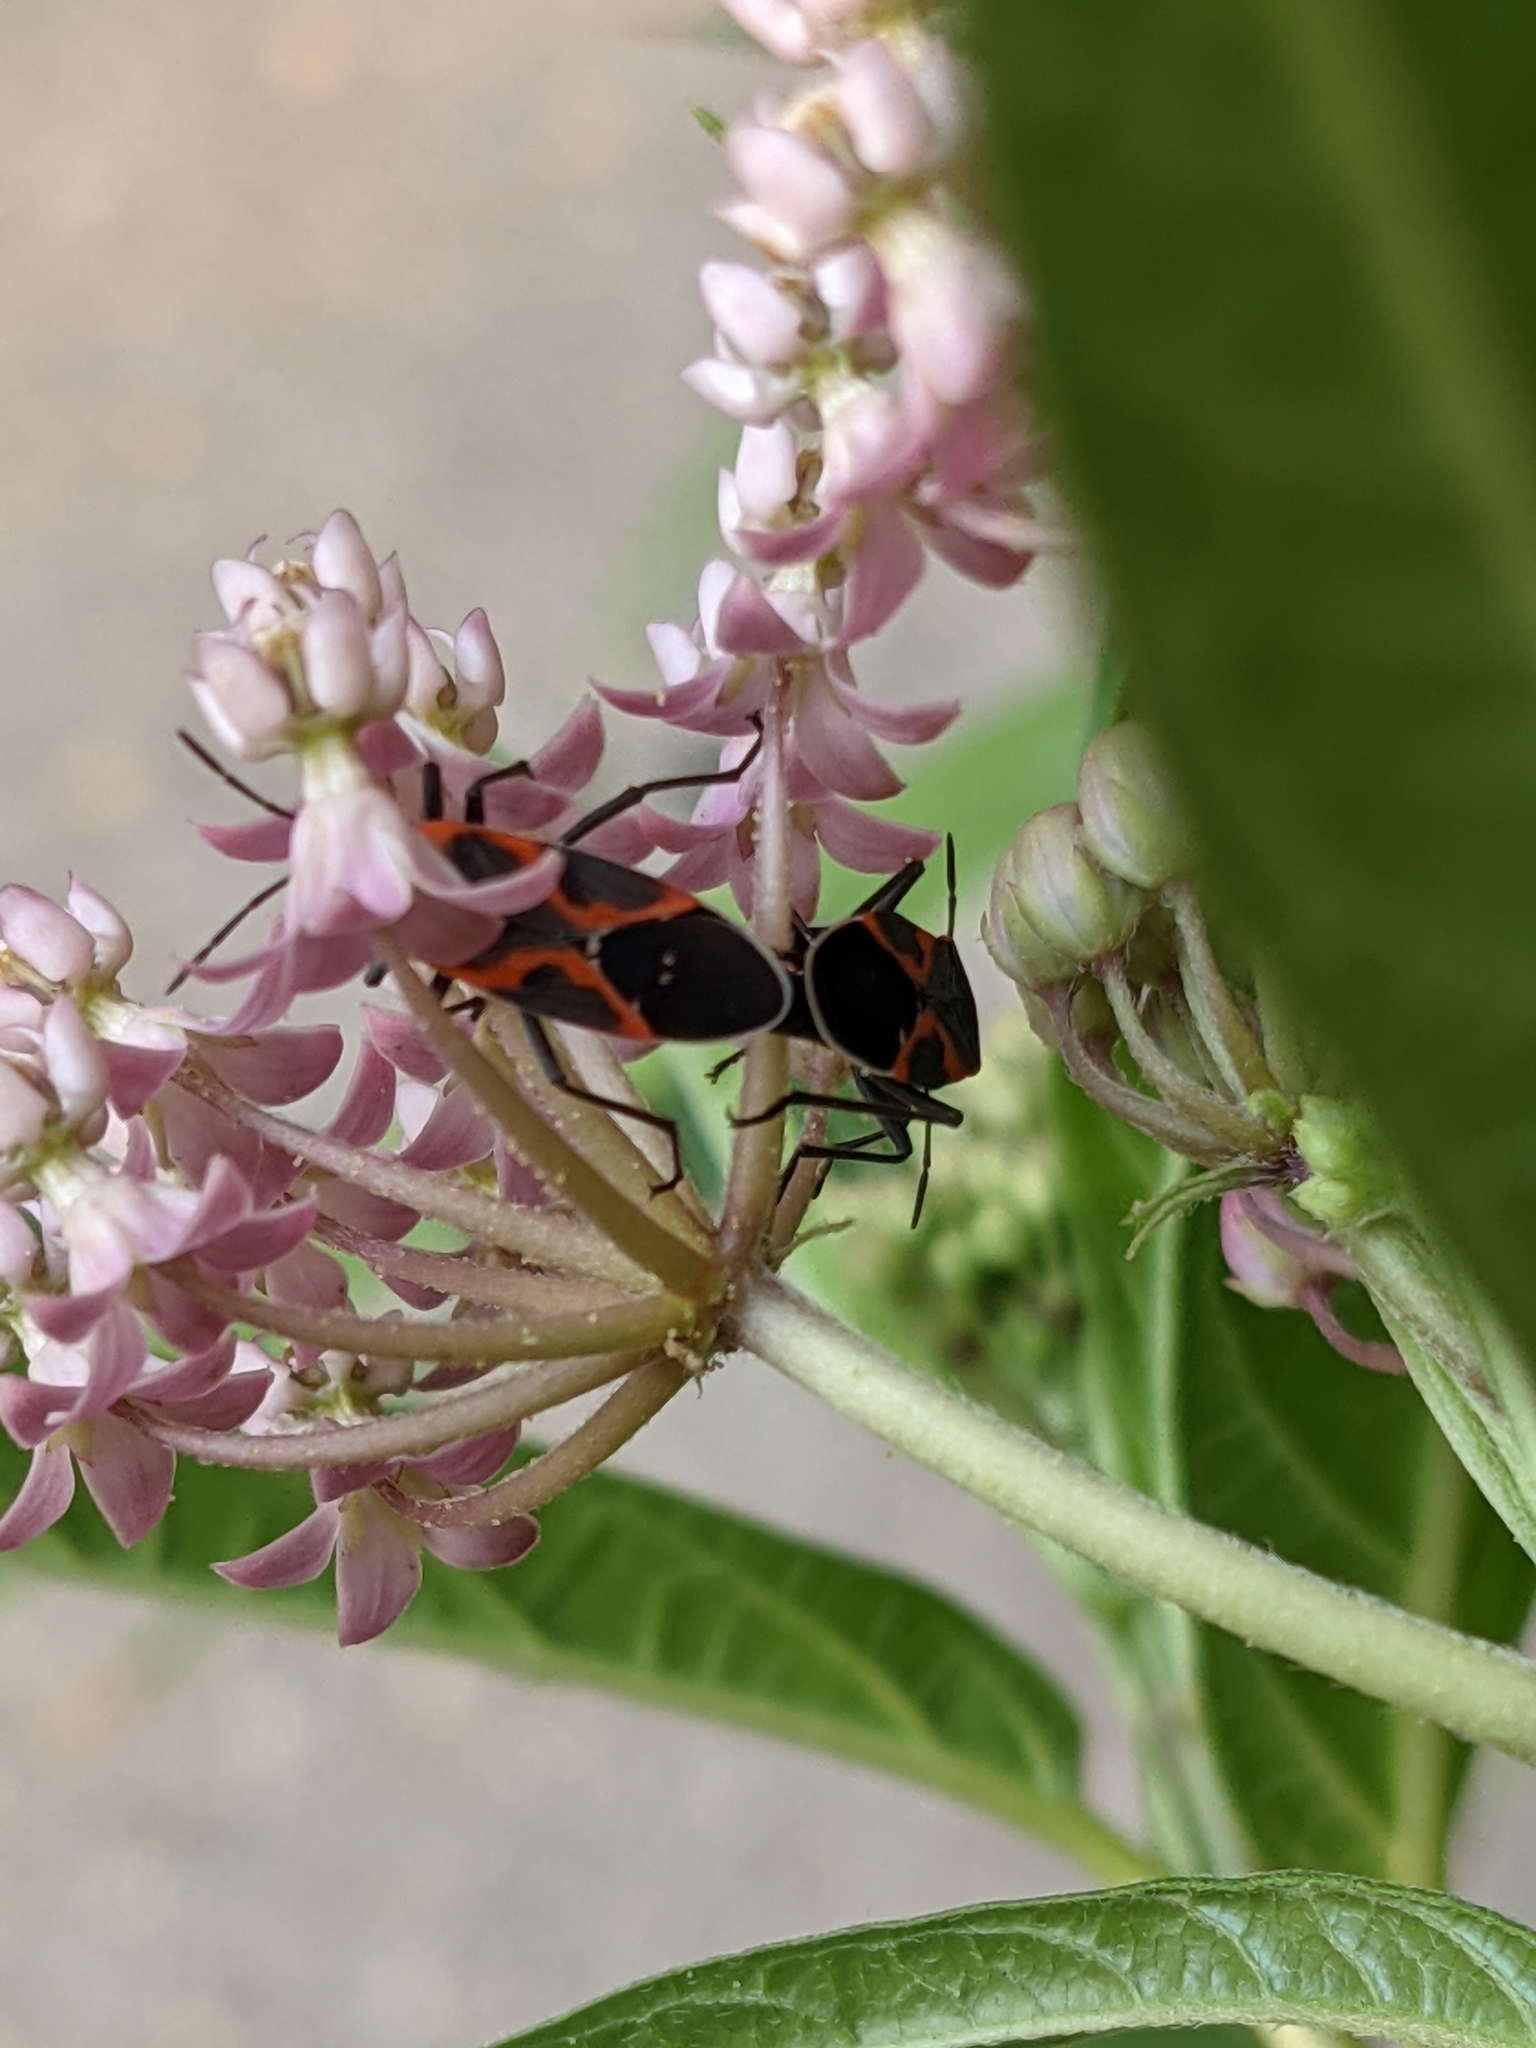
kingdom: Animalia
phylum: Arthropoda
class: Insecta
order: Hemiptera
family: Lygaeidae
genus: Lygaeus
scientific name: Lygaeus kalmii
